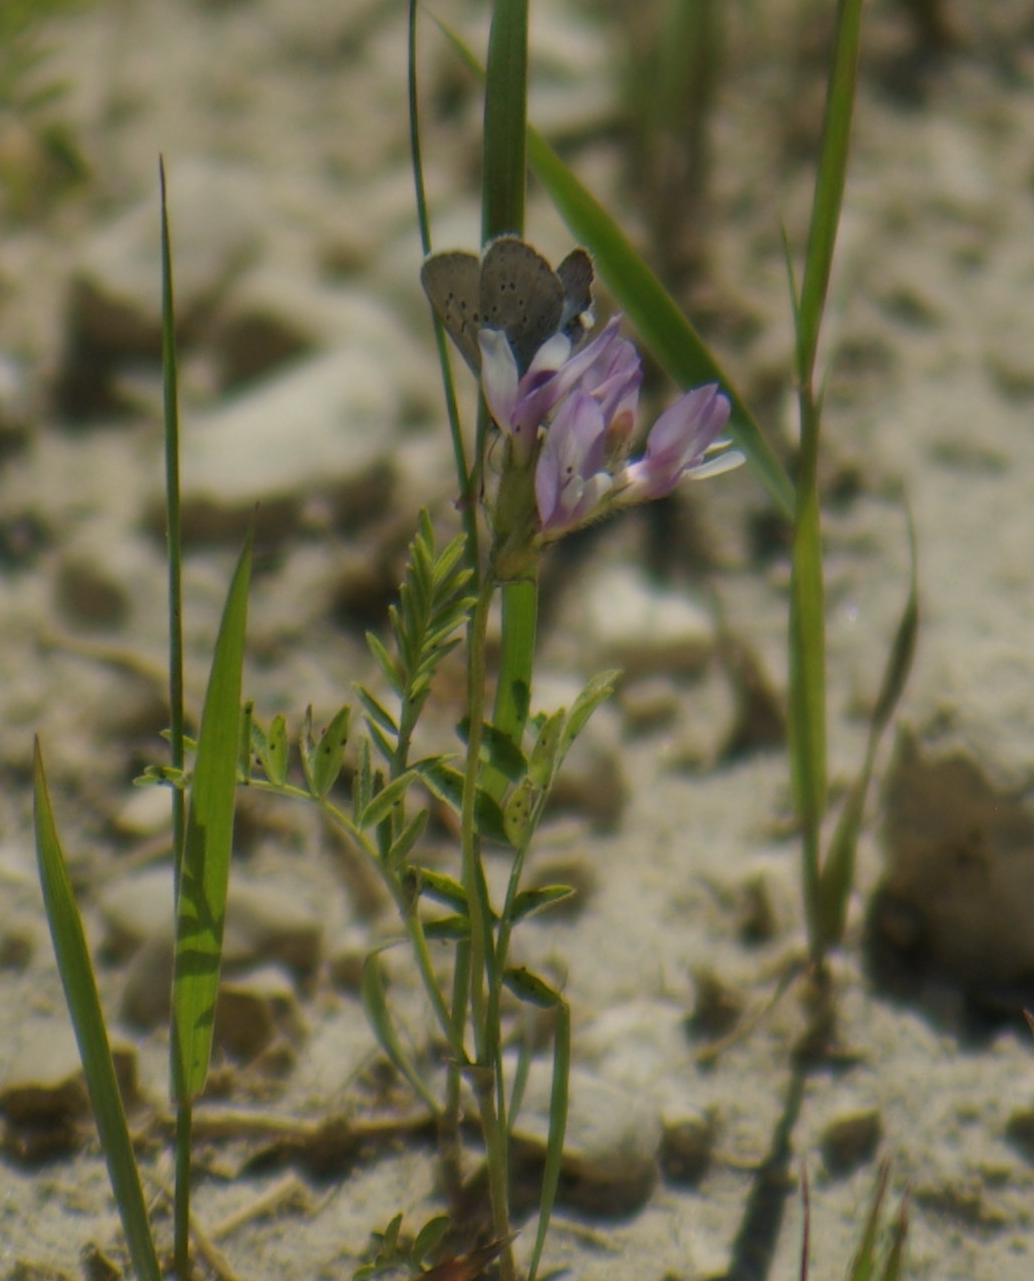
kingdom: Plantae
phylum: Tracheophyta
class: Magnoliopsida
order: Fabales
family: Fabaceae
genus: Astragalus
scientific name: Astragalus agrestis
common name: Field milk-vetch
